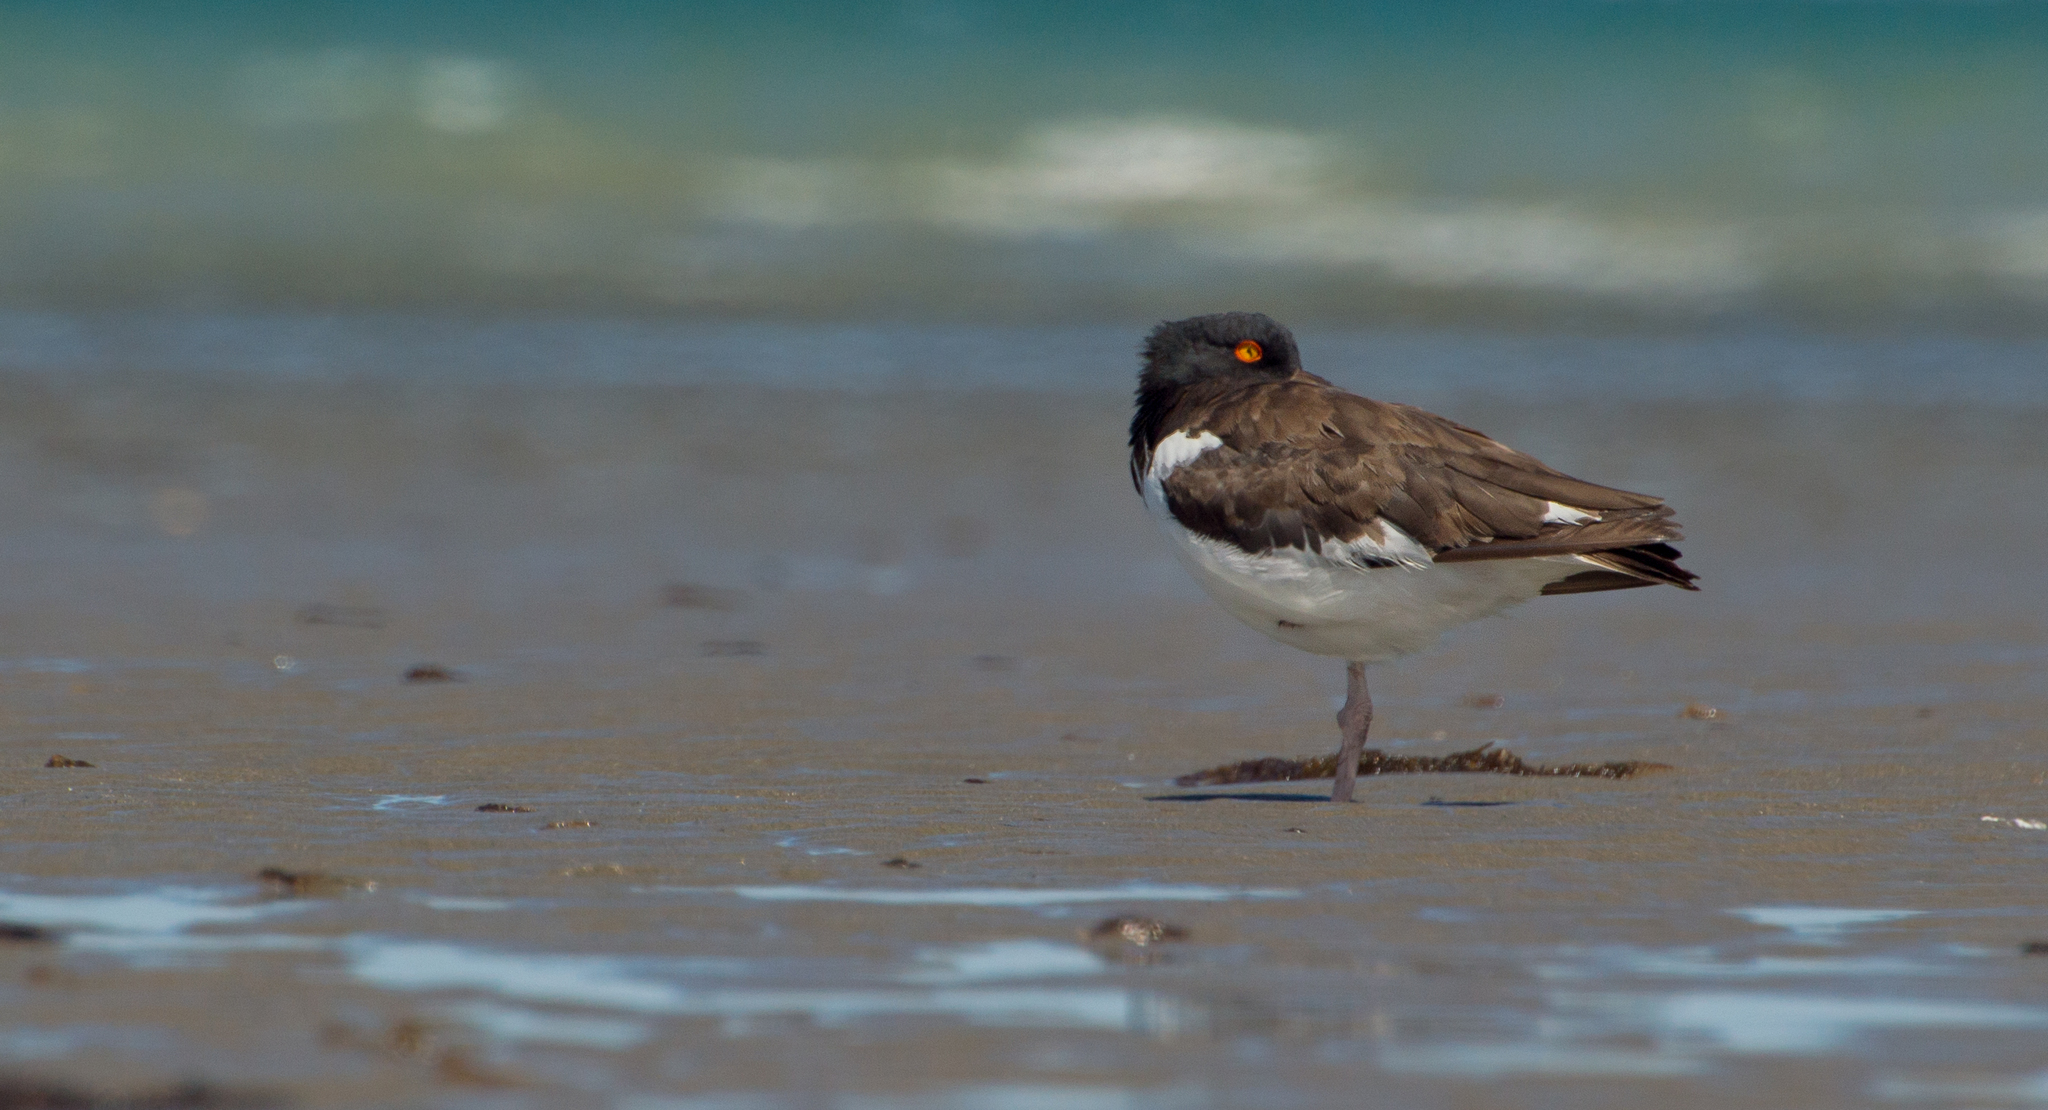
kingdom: Animalia
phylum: Chordata
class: Aves
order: Charadriiformes
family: Haematopodidae
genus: Haematopus
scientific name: Haematopus palliatus
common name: American oystercatcher
